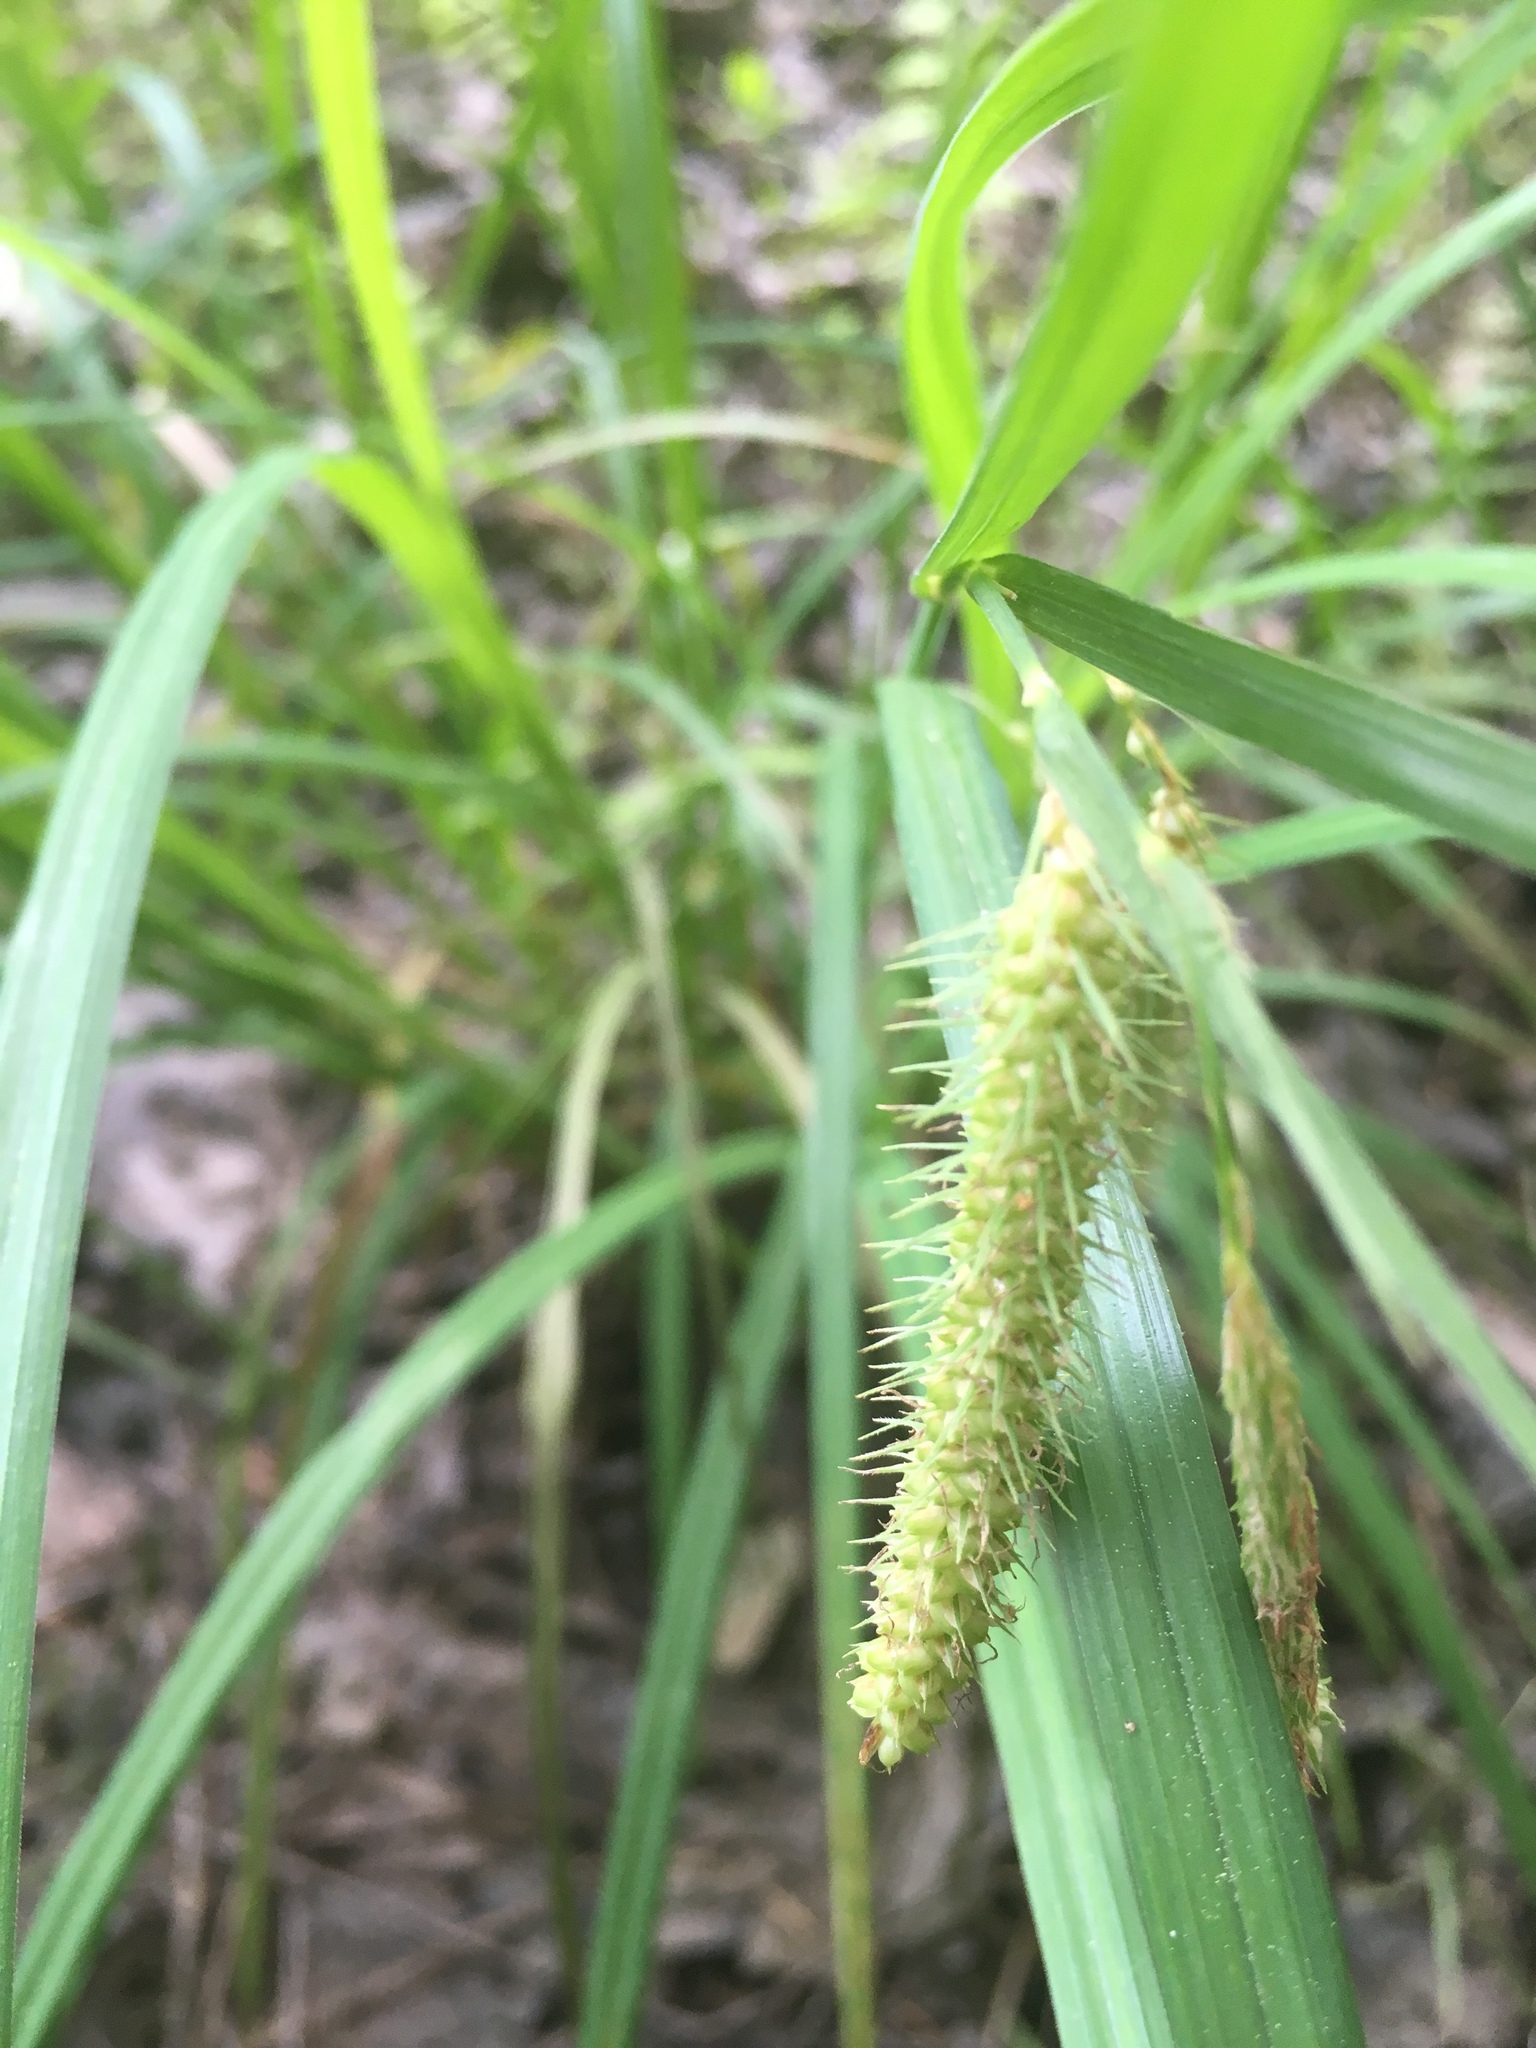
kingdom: Plantae
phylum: Tracheophyta
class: Liliopsida
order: Poales
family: Cyperaceae
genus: Carex
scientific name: Carex crinita
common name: Fringed sedge
